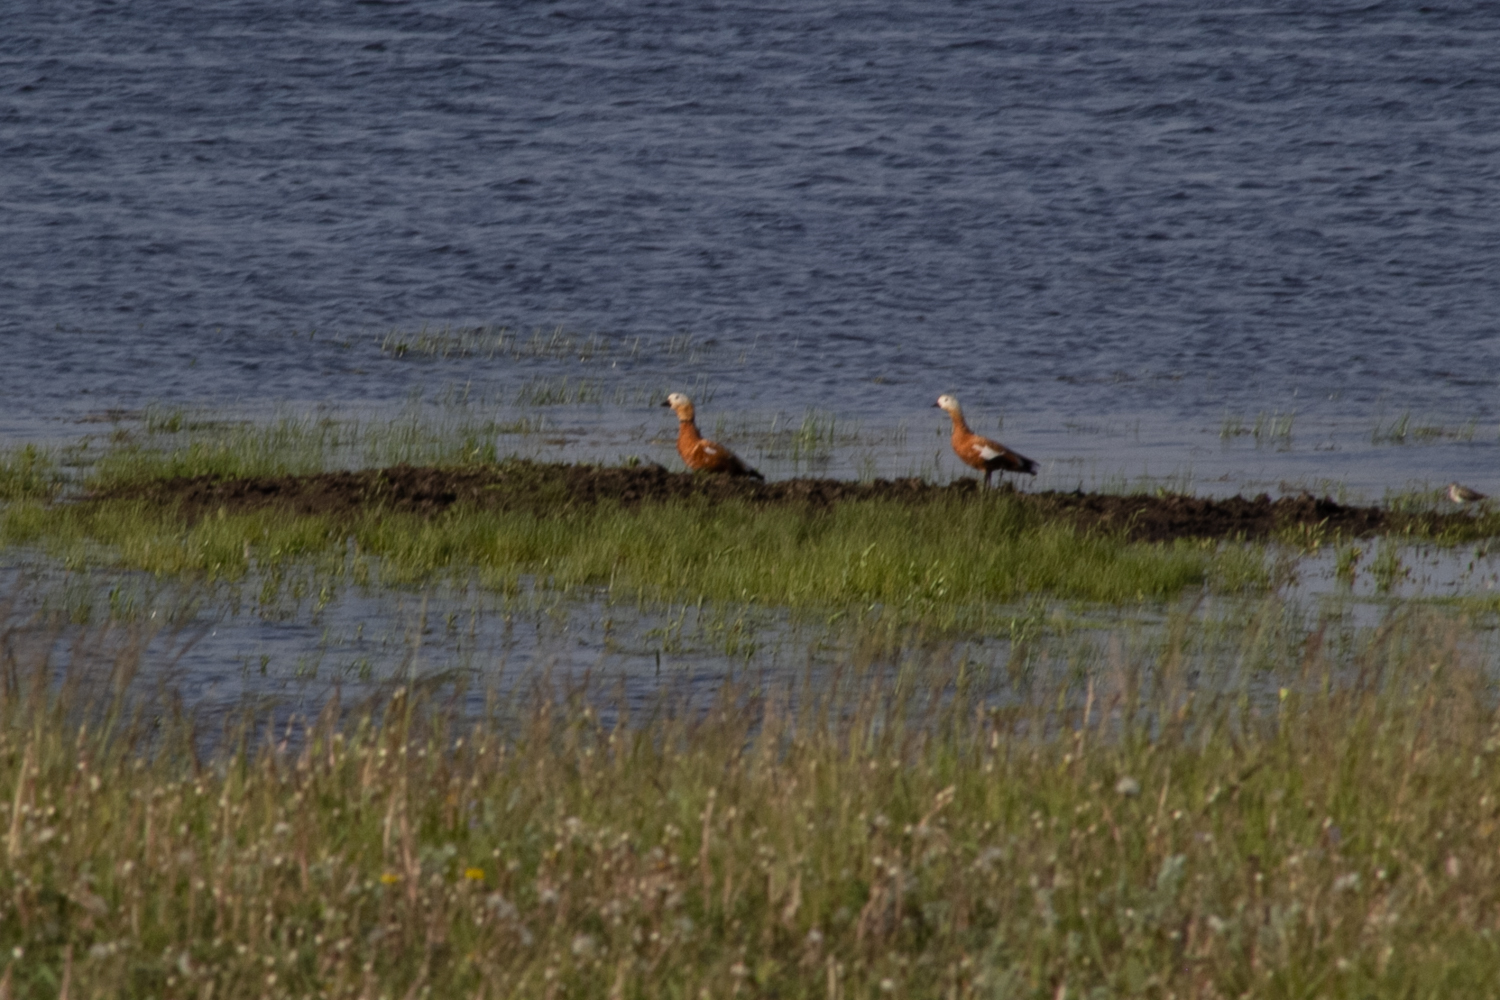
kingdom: Animalia
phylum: Chordata
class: Aves
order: Anseriformes
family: Anatidae
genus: Tadorna
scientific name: Tadorna ferruginea
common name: Ruddy shelduck
